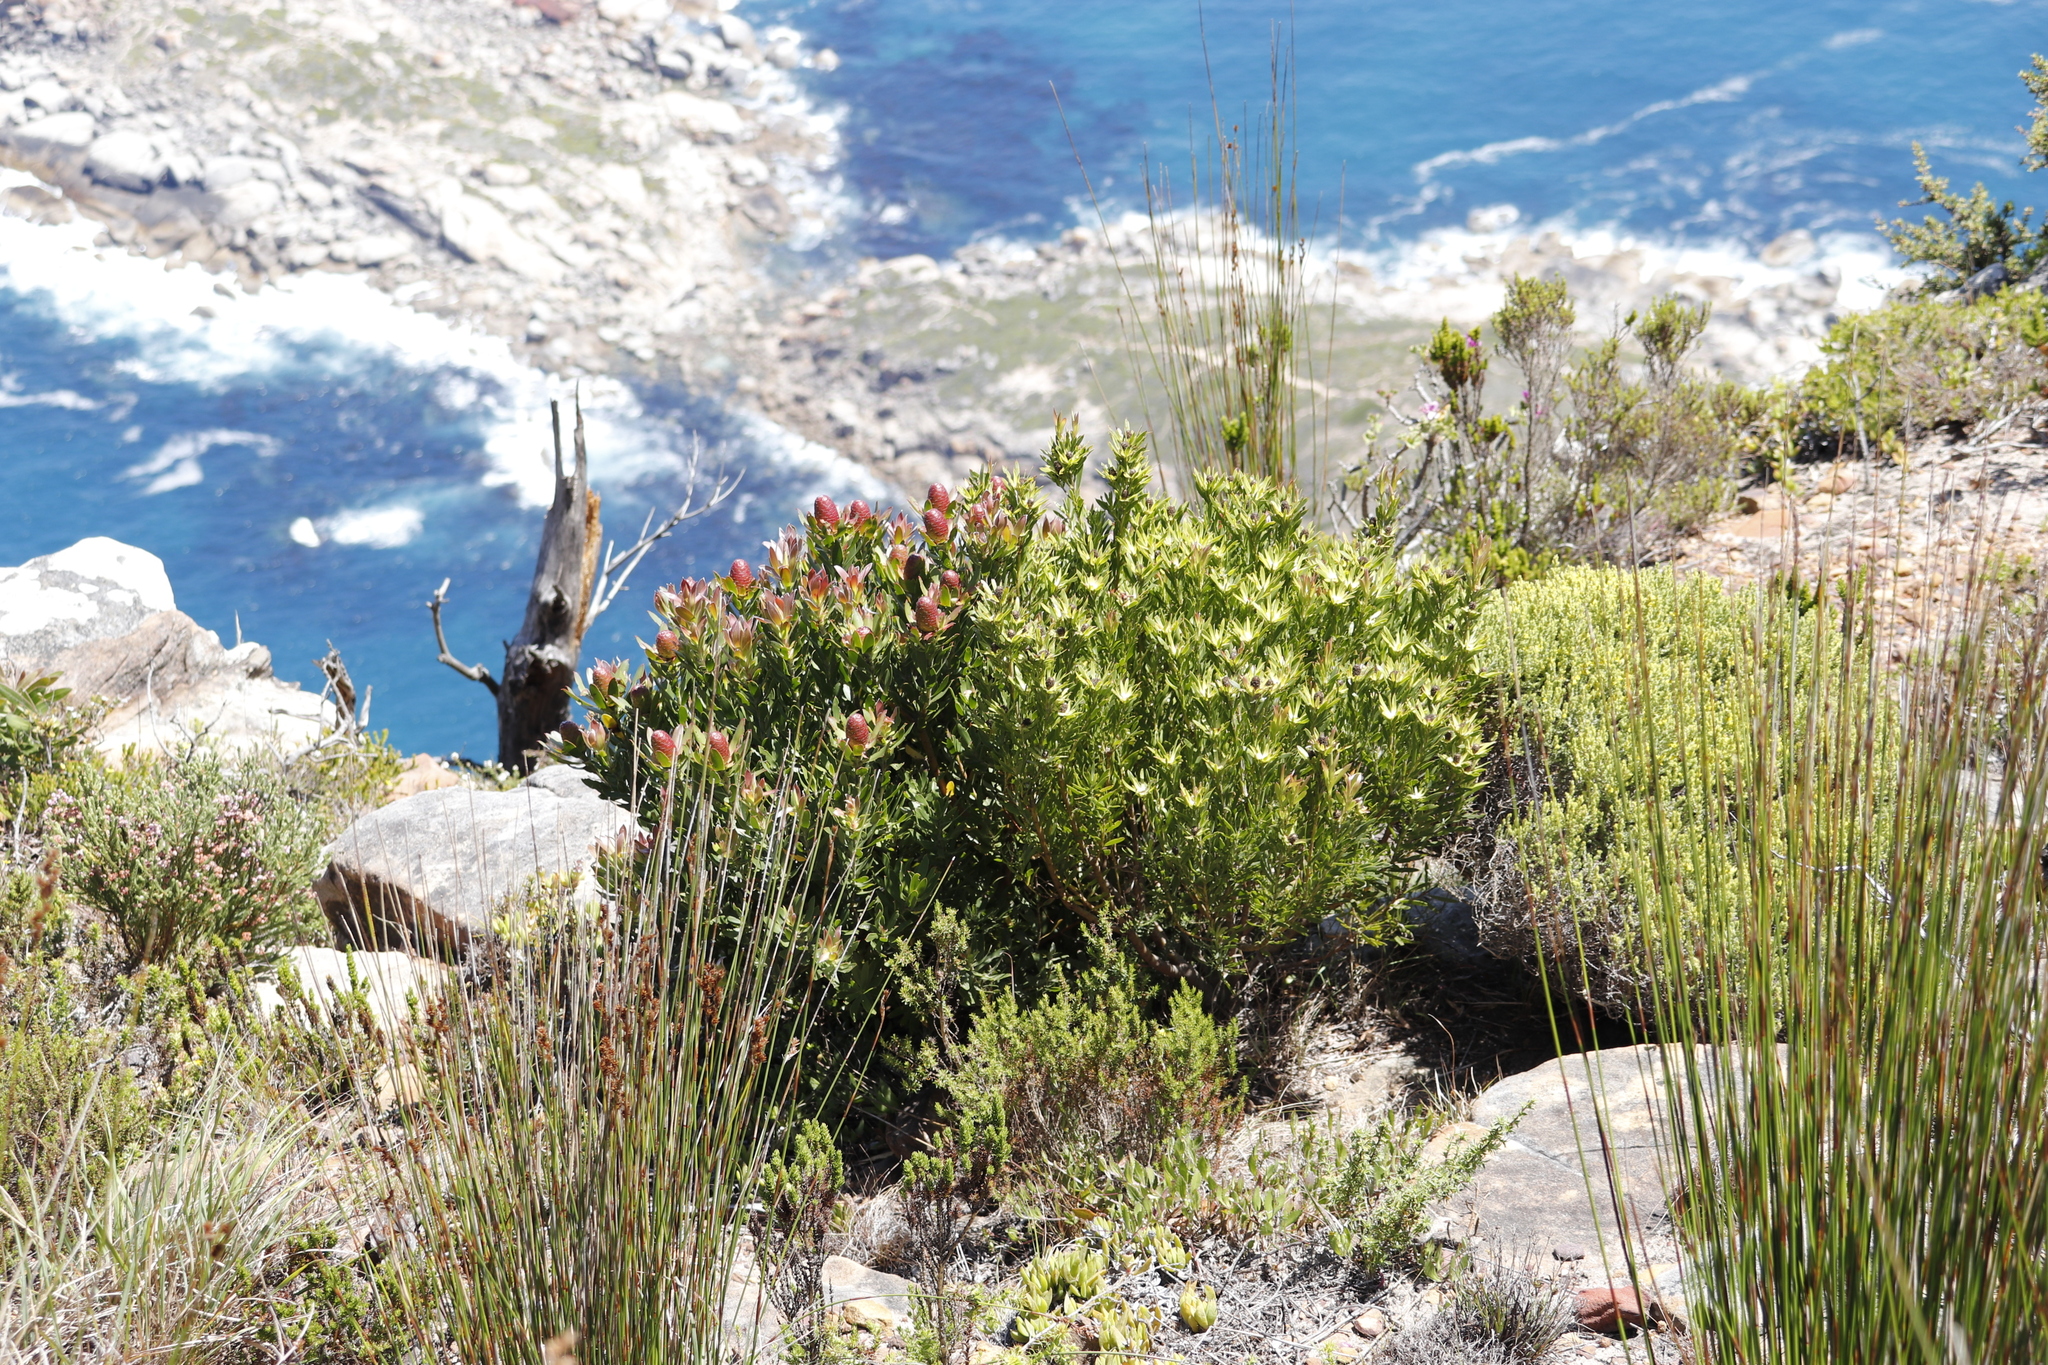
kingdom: Plantae
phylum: Tracheophyta
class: Magnoliopsida
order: Proteales
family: Proteaceae
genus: Leucadendron
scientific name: Leucadendron xanthoconus
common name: Sickle-leaf conebush
